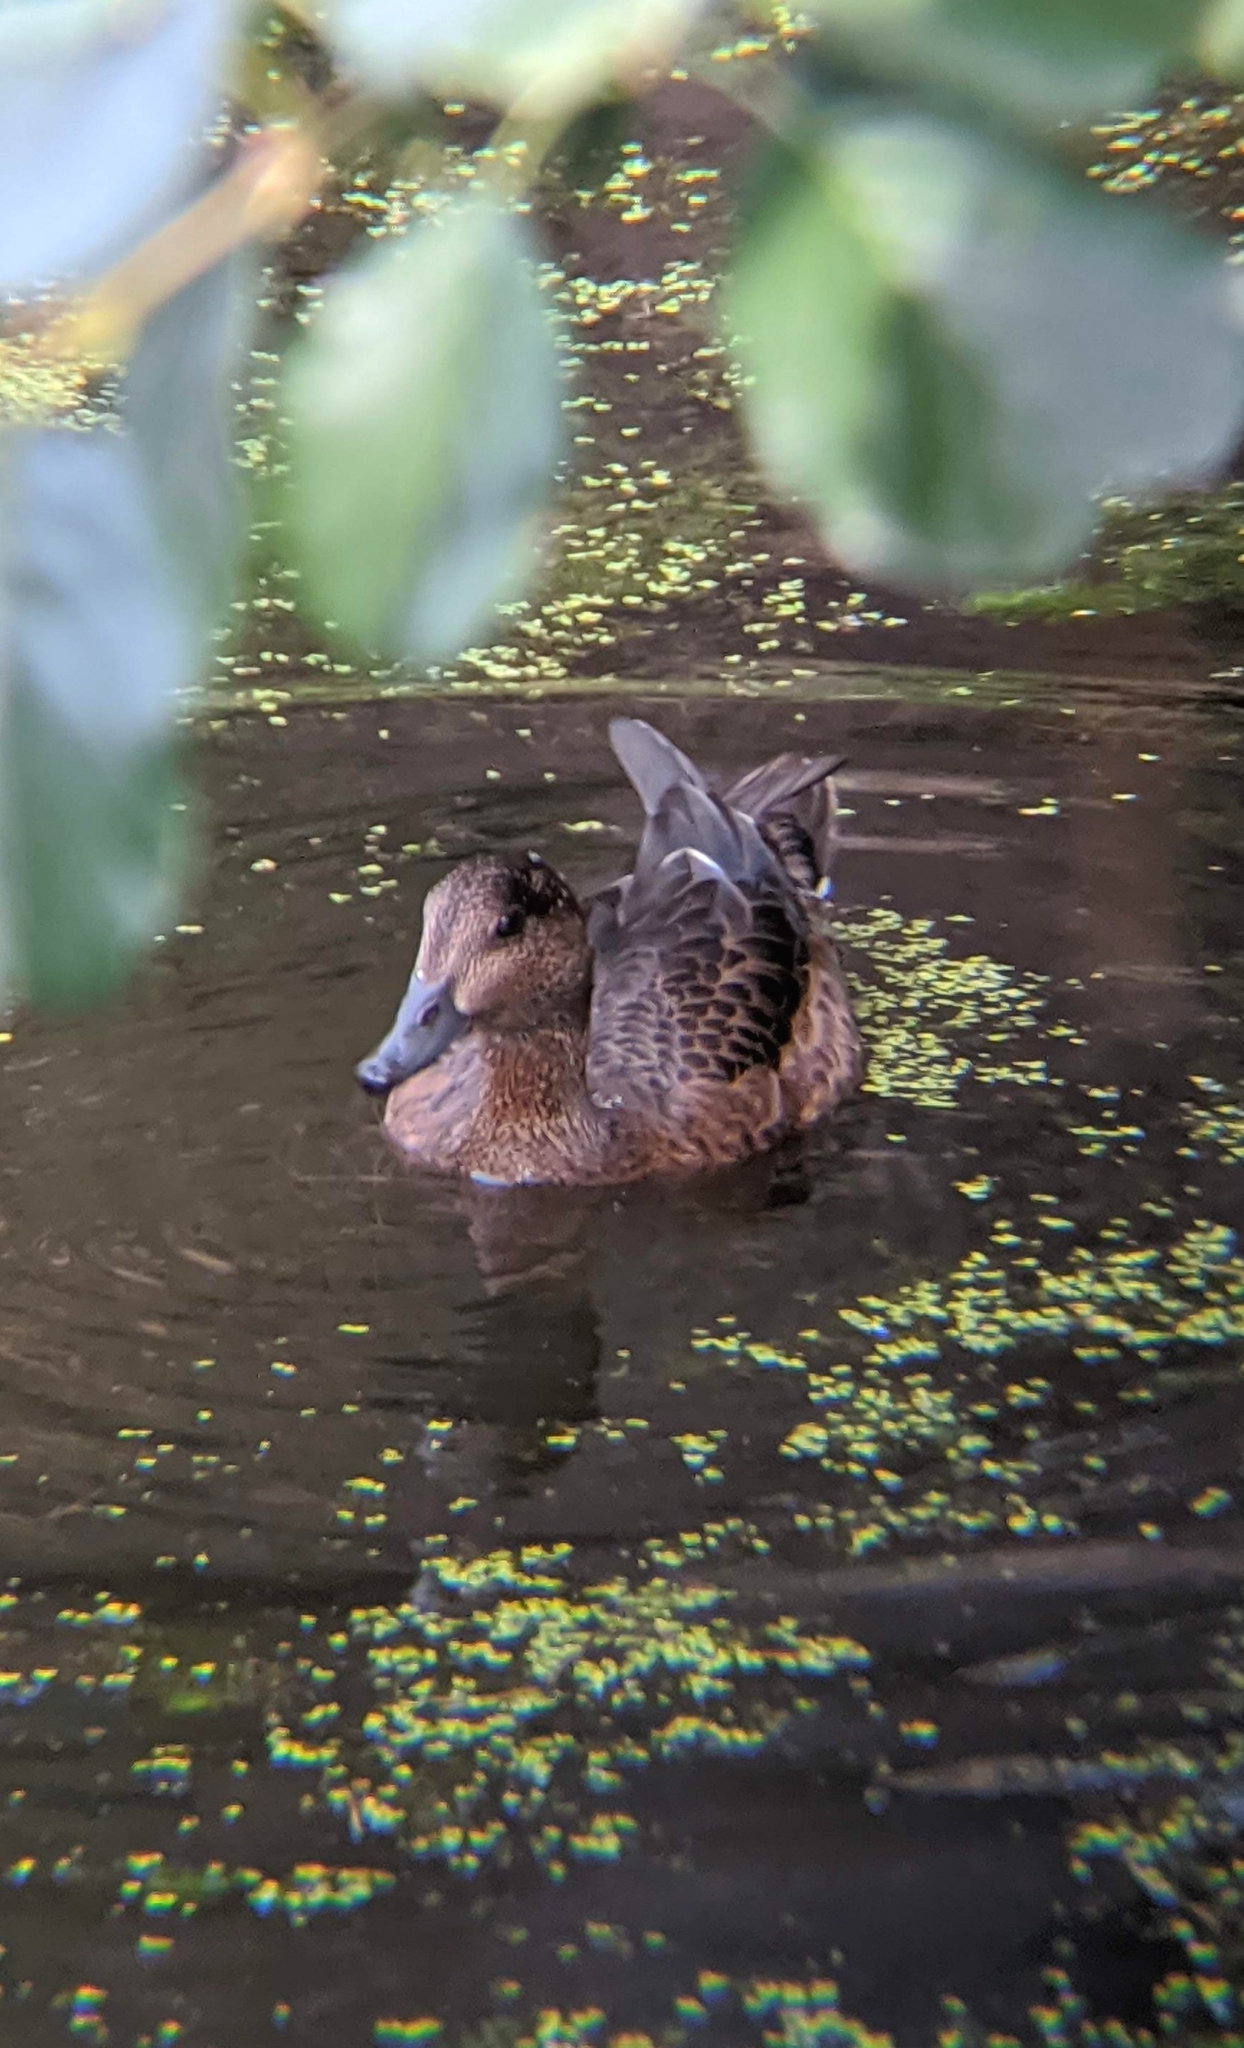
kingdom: Animalia
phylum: Chordata
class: Aves
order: Anseriformes
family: Anatidae
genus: Mareca
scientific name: Mareca penelope
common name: Eurasian wigeon
